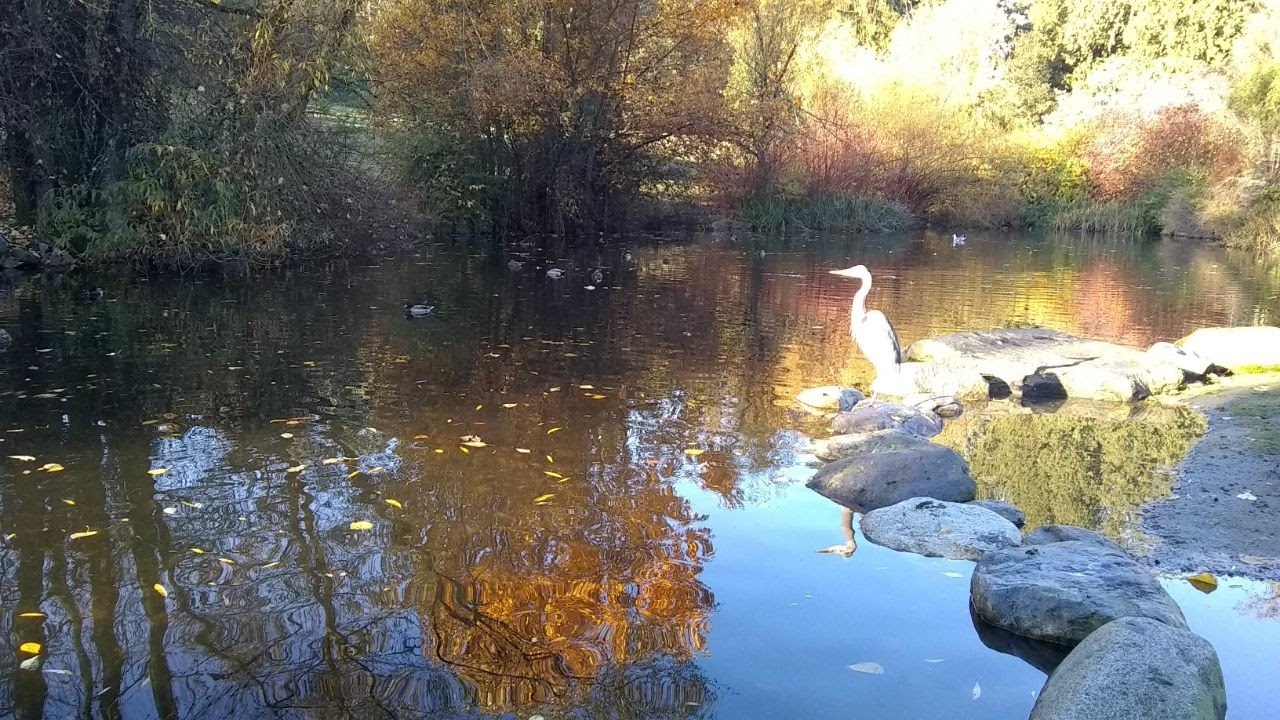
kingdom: Animalia
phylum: Chordata
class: Aves
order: Pelecaniformes
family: Ardeidae
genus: Ardea
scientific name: Ardea herodias
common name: Great blue heron
